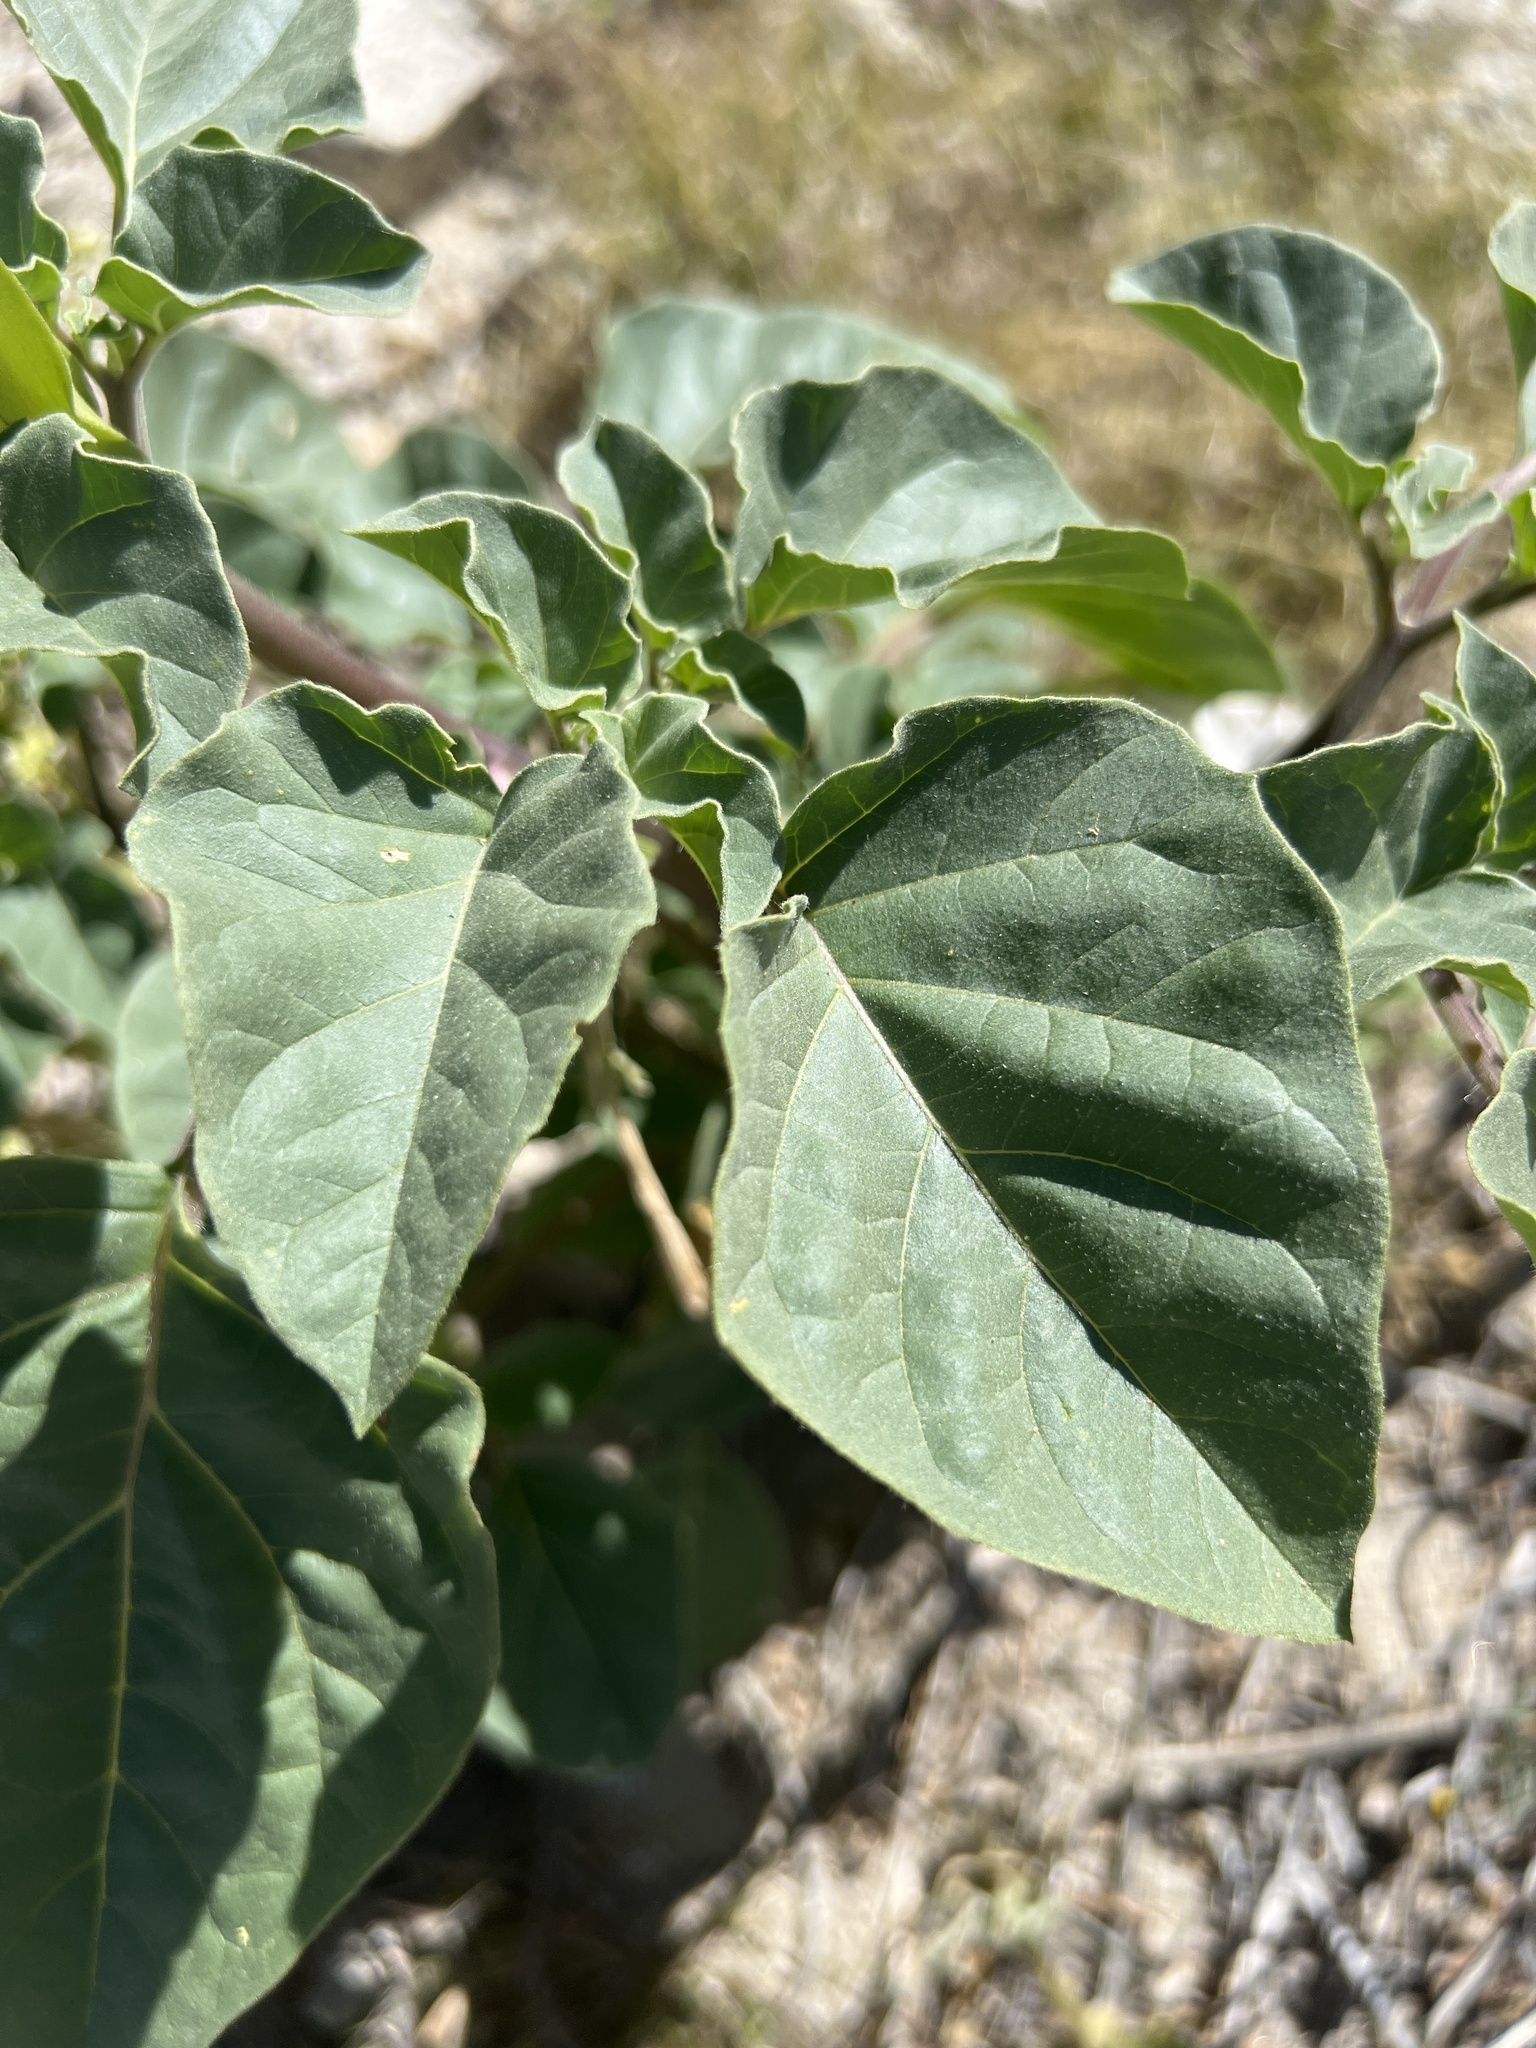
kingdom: Plantae
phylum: Tracheophyta
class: Magnoliopsida
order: Solanales
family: Solanaceae
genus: Datura
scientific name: Datura discolor
